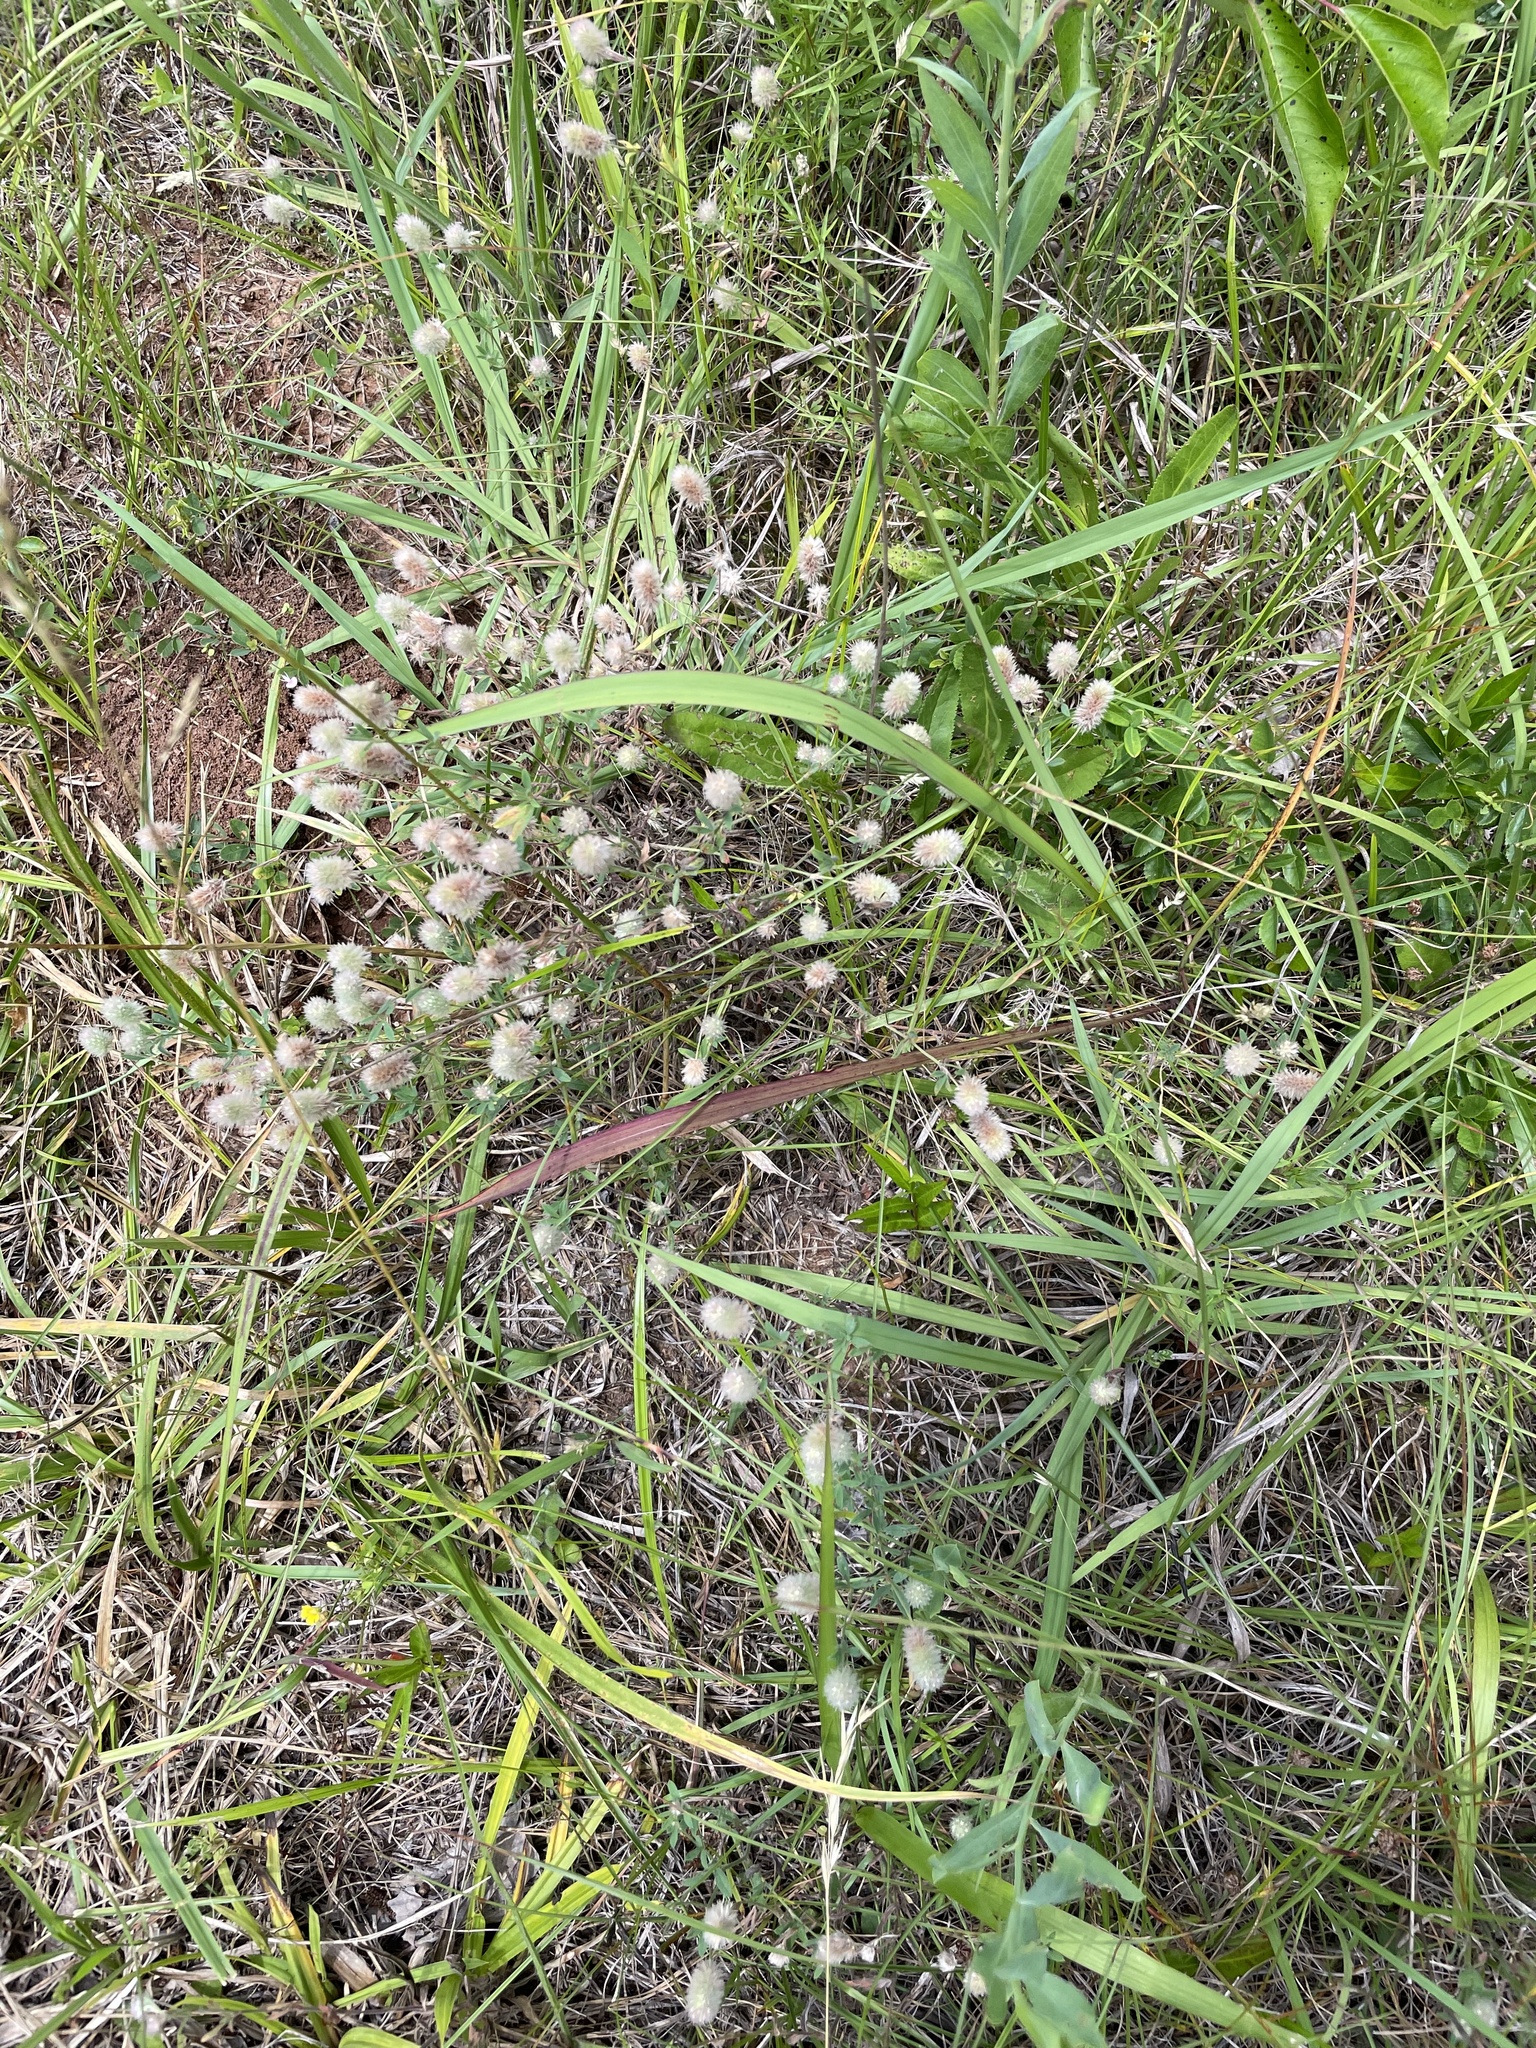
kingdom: Plantae
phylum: Tracheophyta
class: Magnoliopsida
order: Fabales
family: Fabaceae
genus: Trifolium
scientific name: Trifolium arvense
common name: Hare's-foot clover
